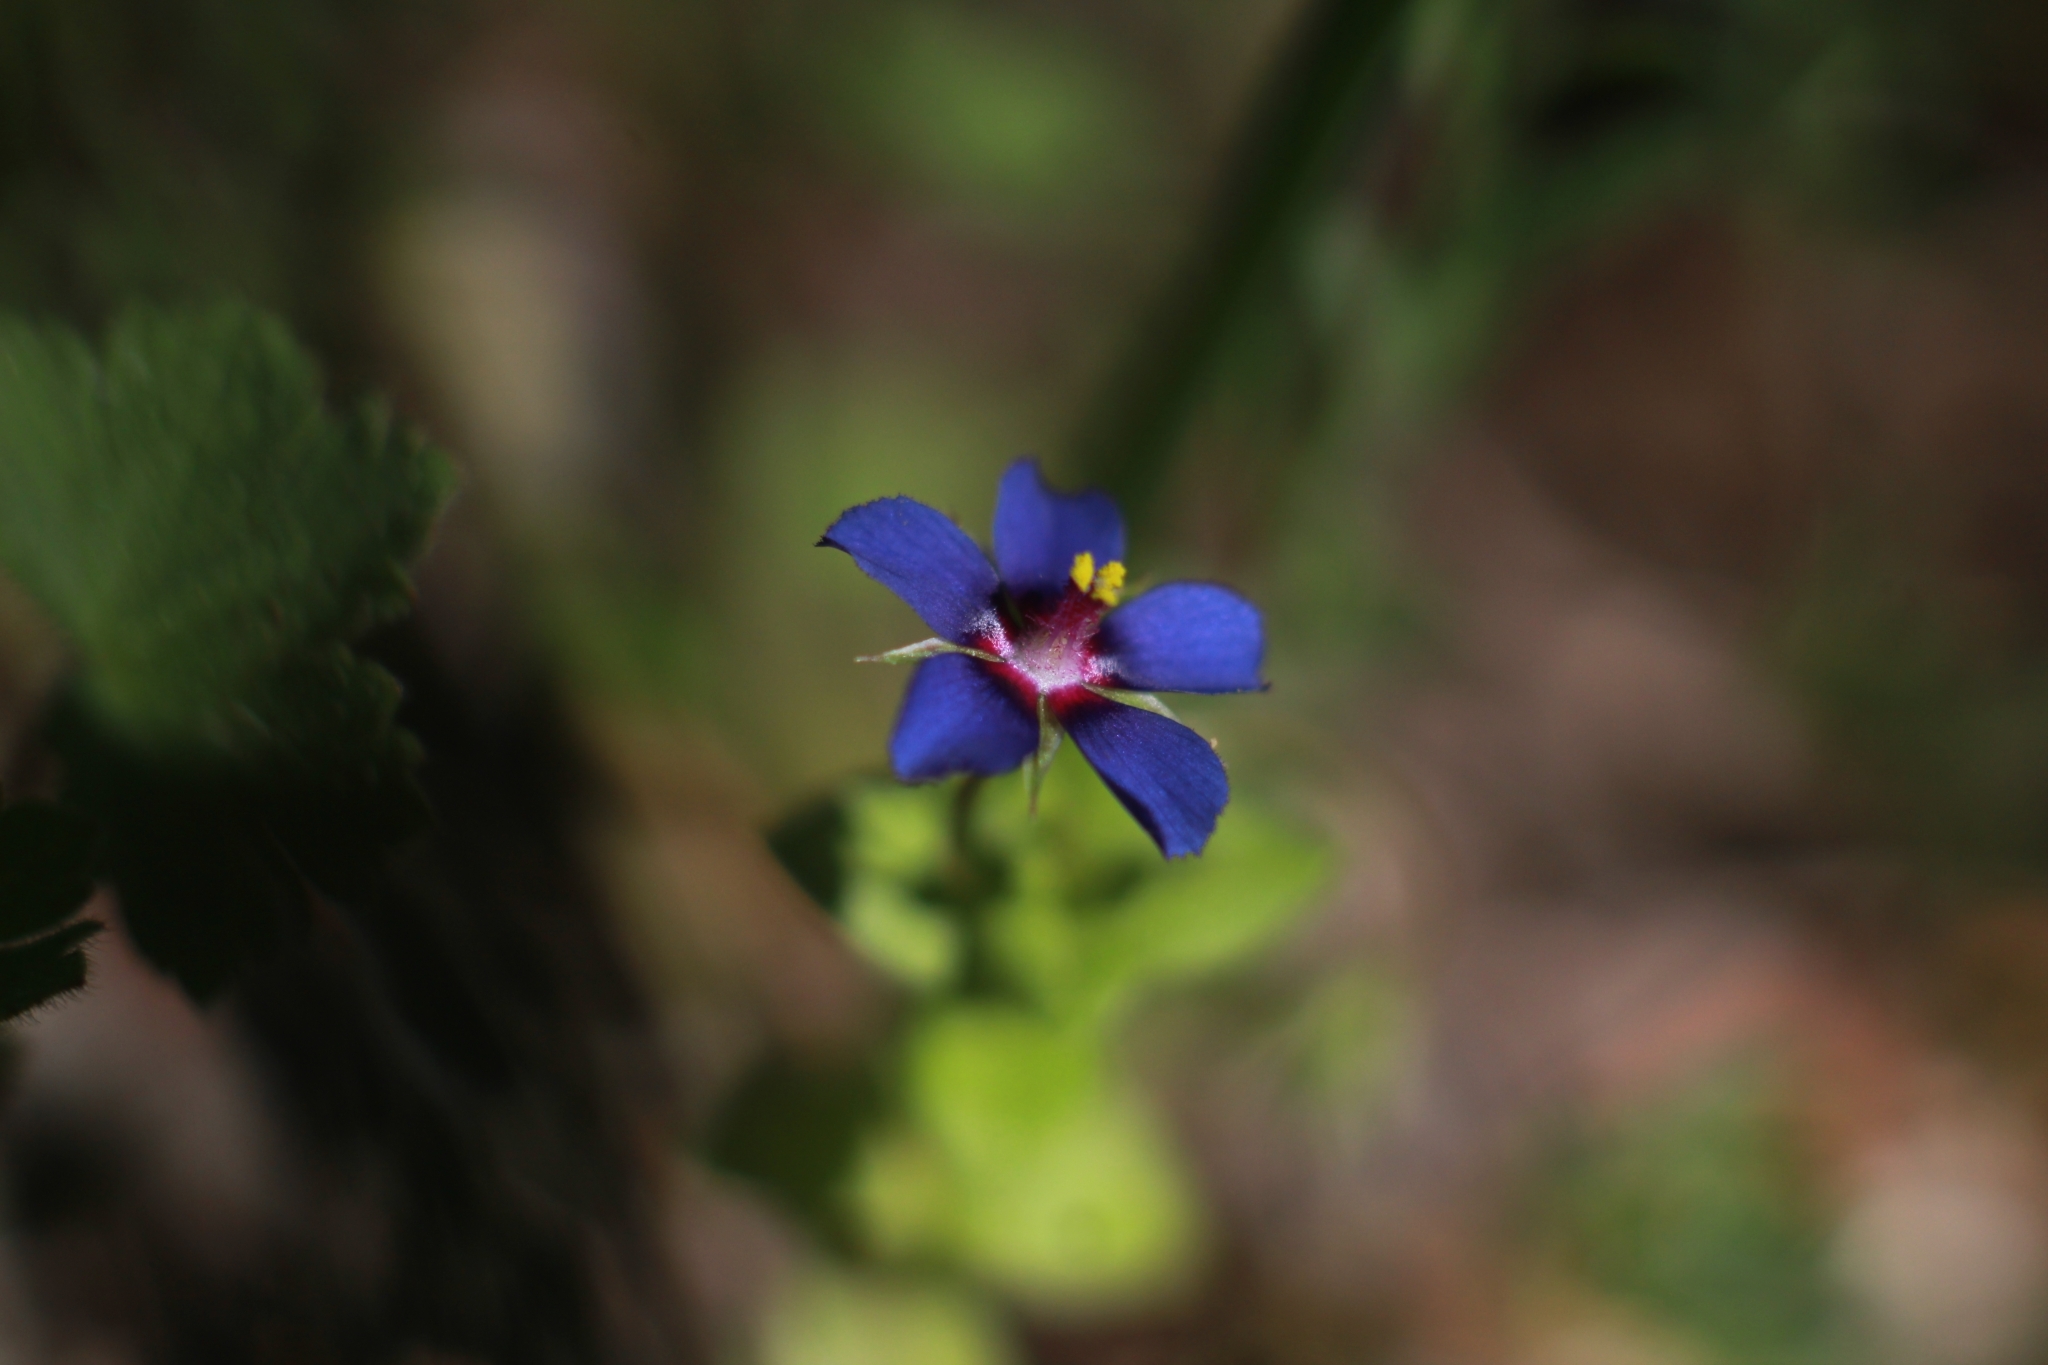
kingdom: Plantae
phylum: Tracheophyta
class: Magnoliopsida
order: Ericales
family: Primulaceae
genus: Lysimachia
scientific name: Lysimachia loeflingii
